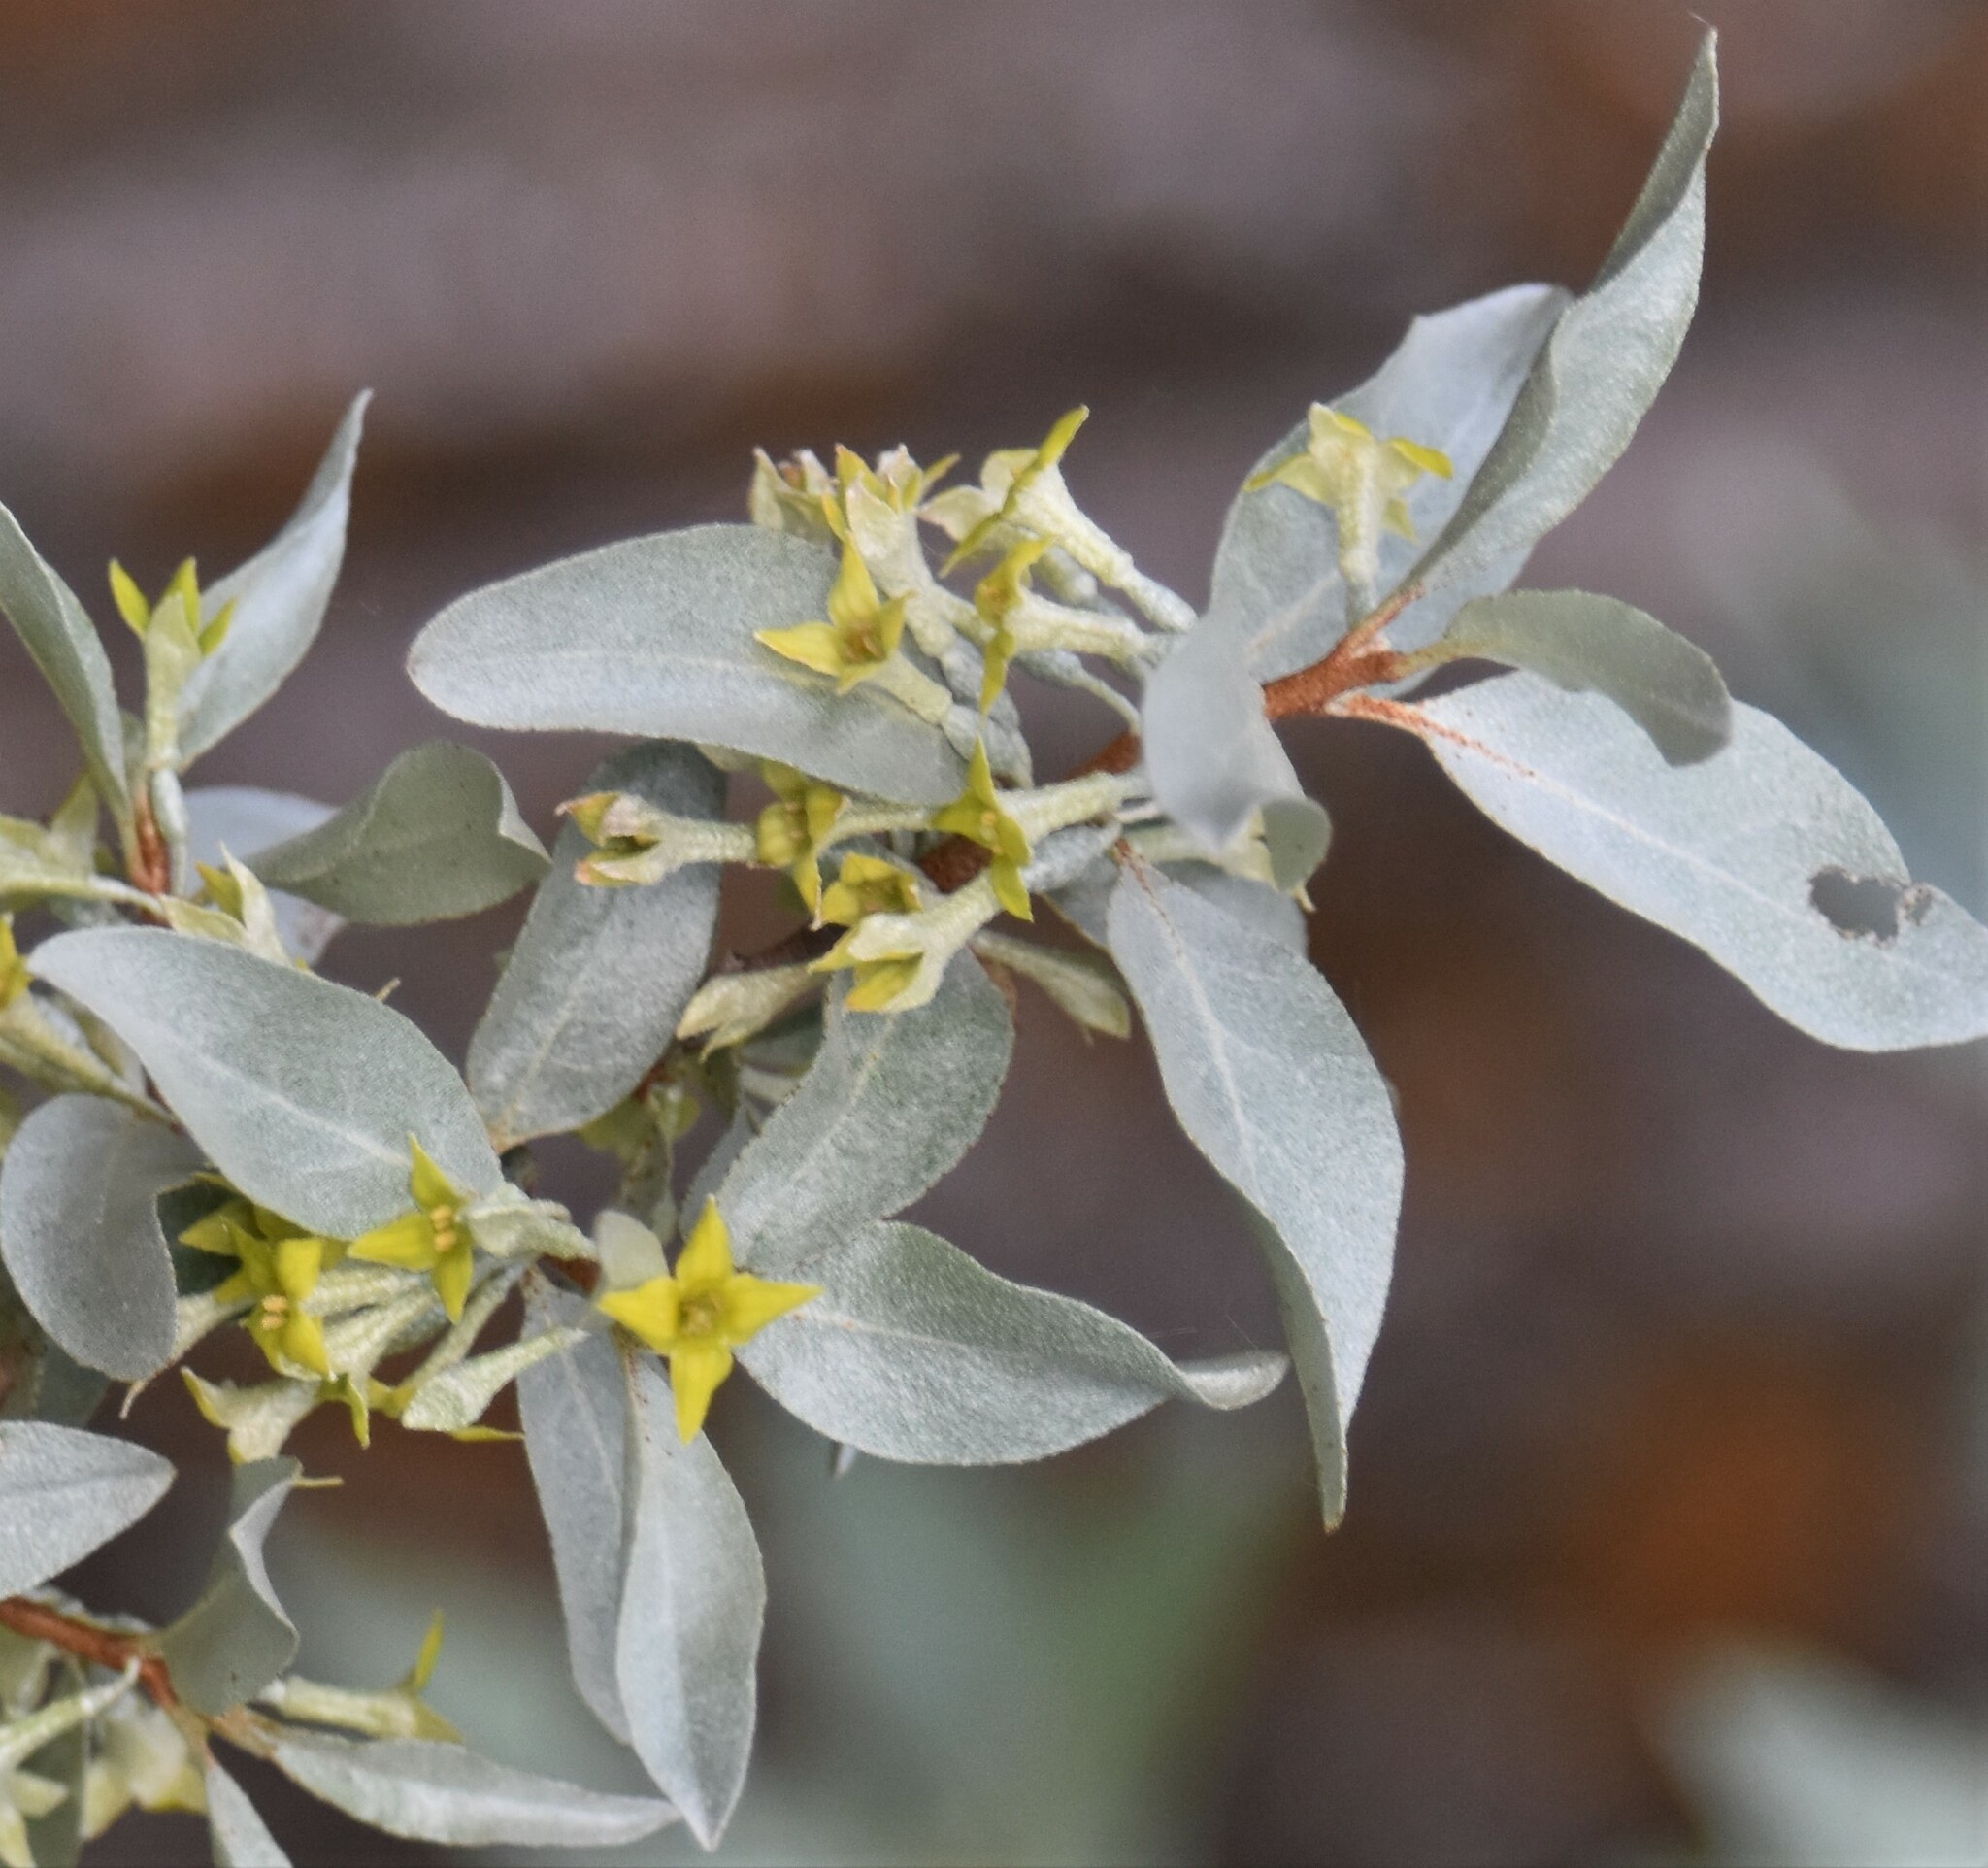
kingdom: Plantae
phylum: Tracheophyta
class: Magnoliopsida
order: Rosales
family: Elaeagnaceae
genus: Elaeagnus
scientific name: Elaeagnus commutata
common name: Silverberry
